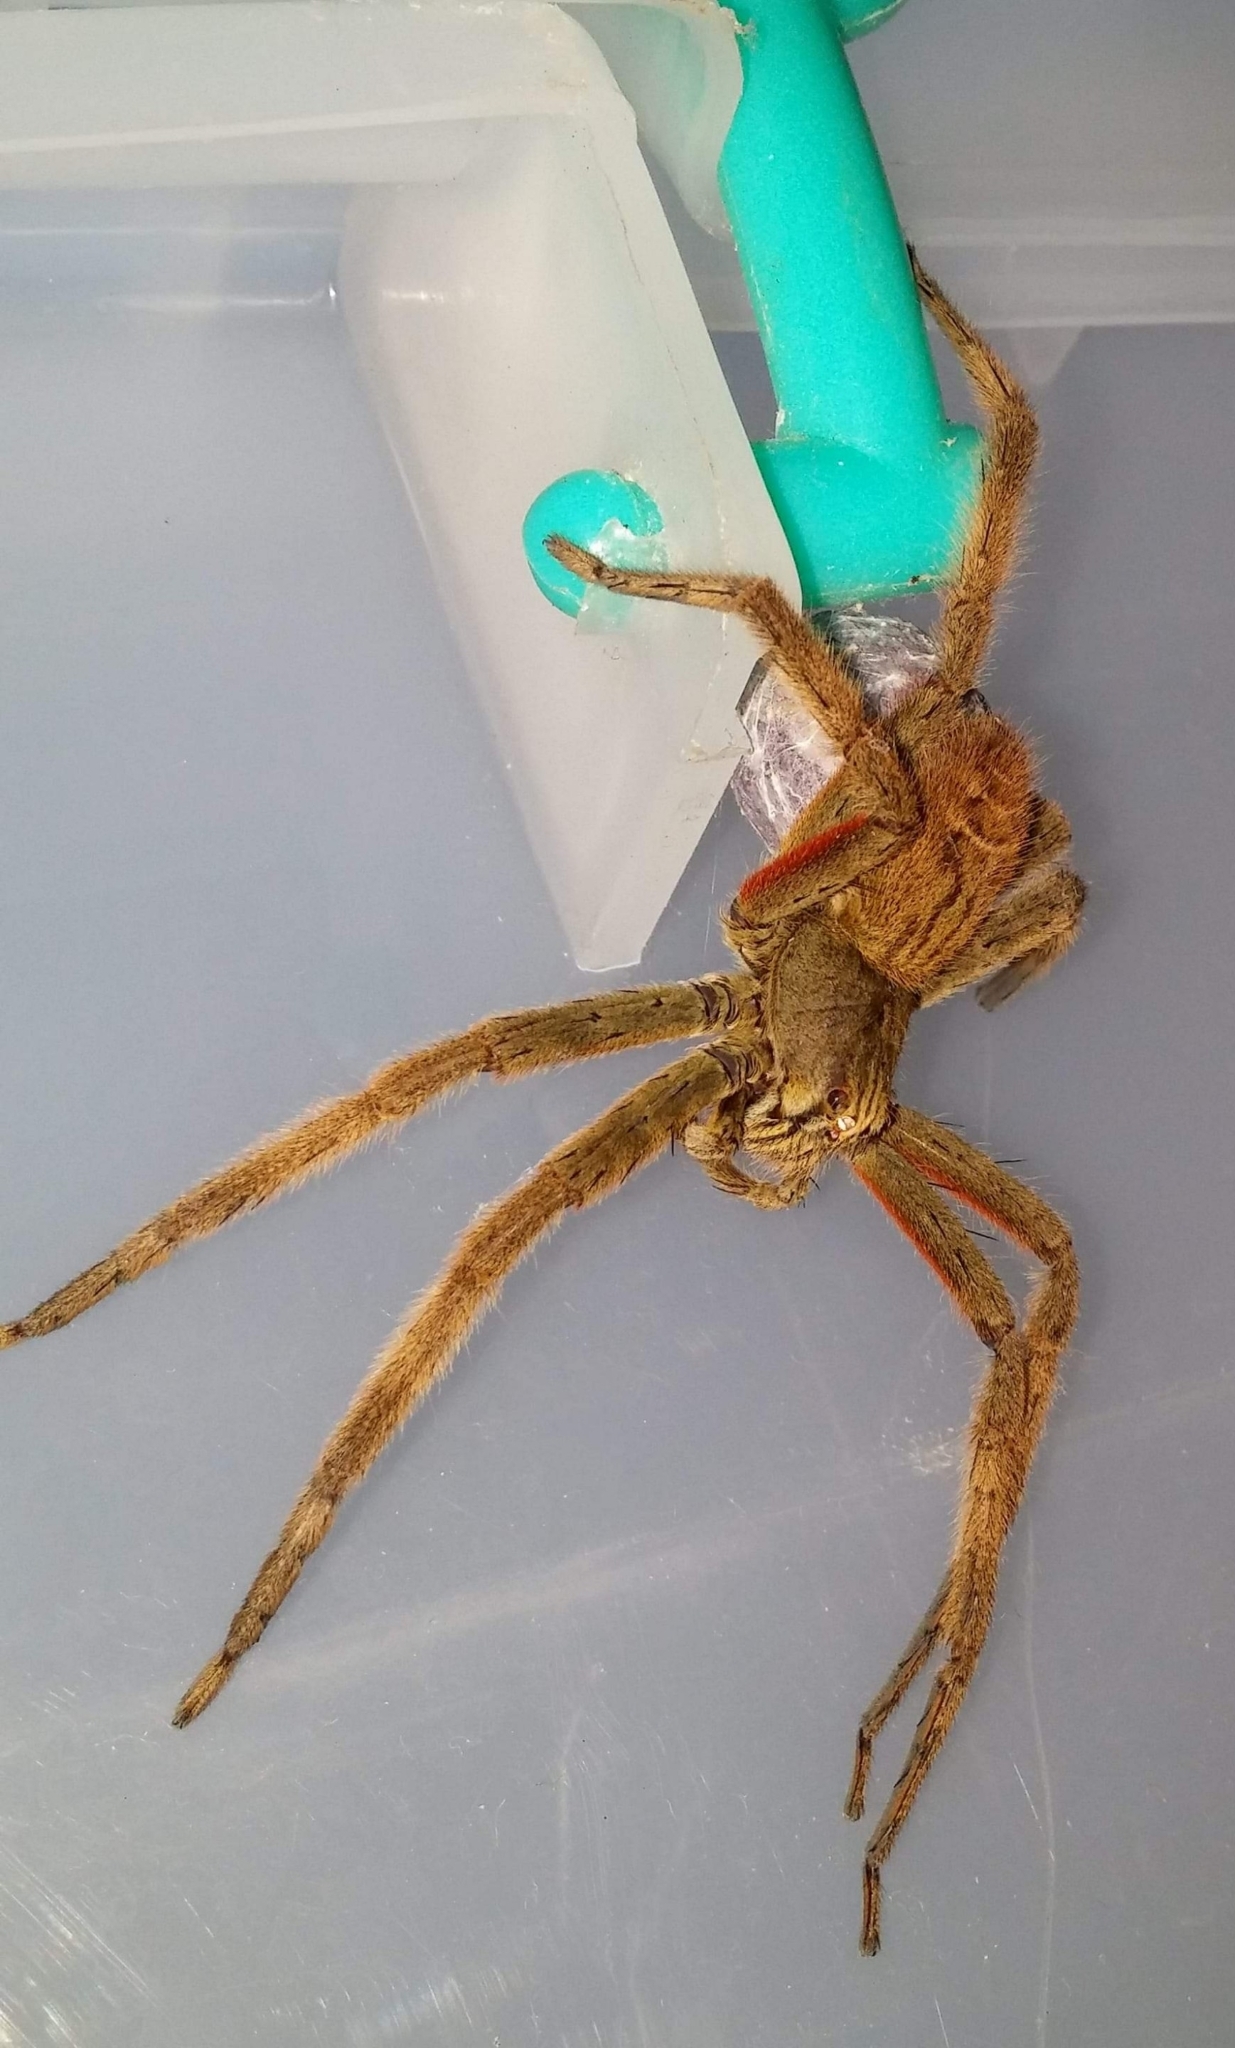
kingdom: Animalia
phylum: Arthropoda
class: Arachnida
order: Araneae
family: Trechaleidae
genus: Cupiennius
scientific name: Cupiennius coccineus
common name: Wandering spiders
